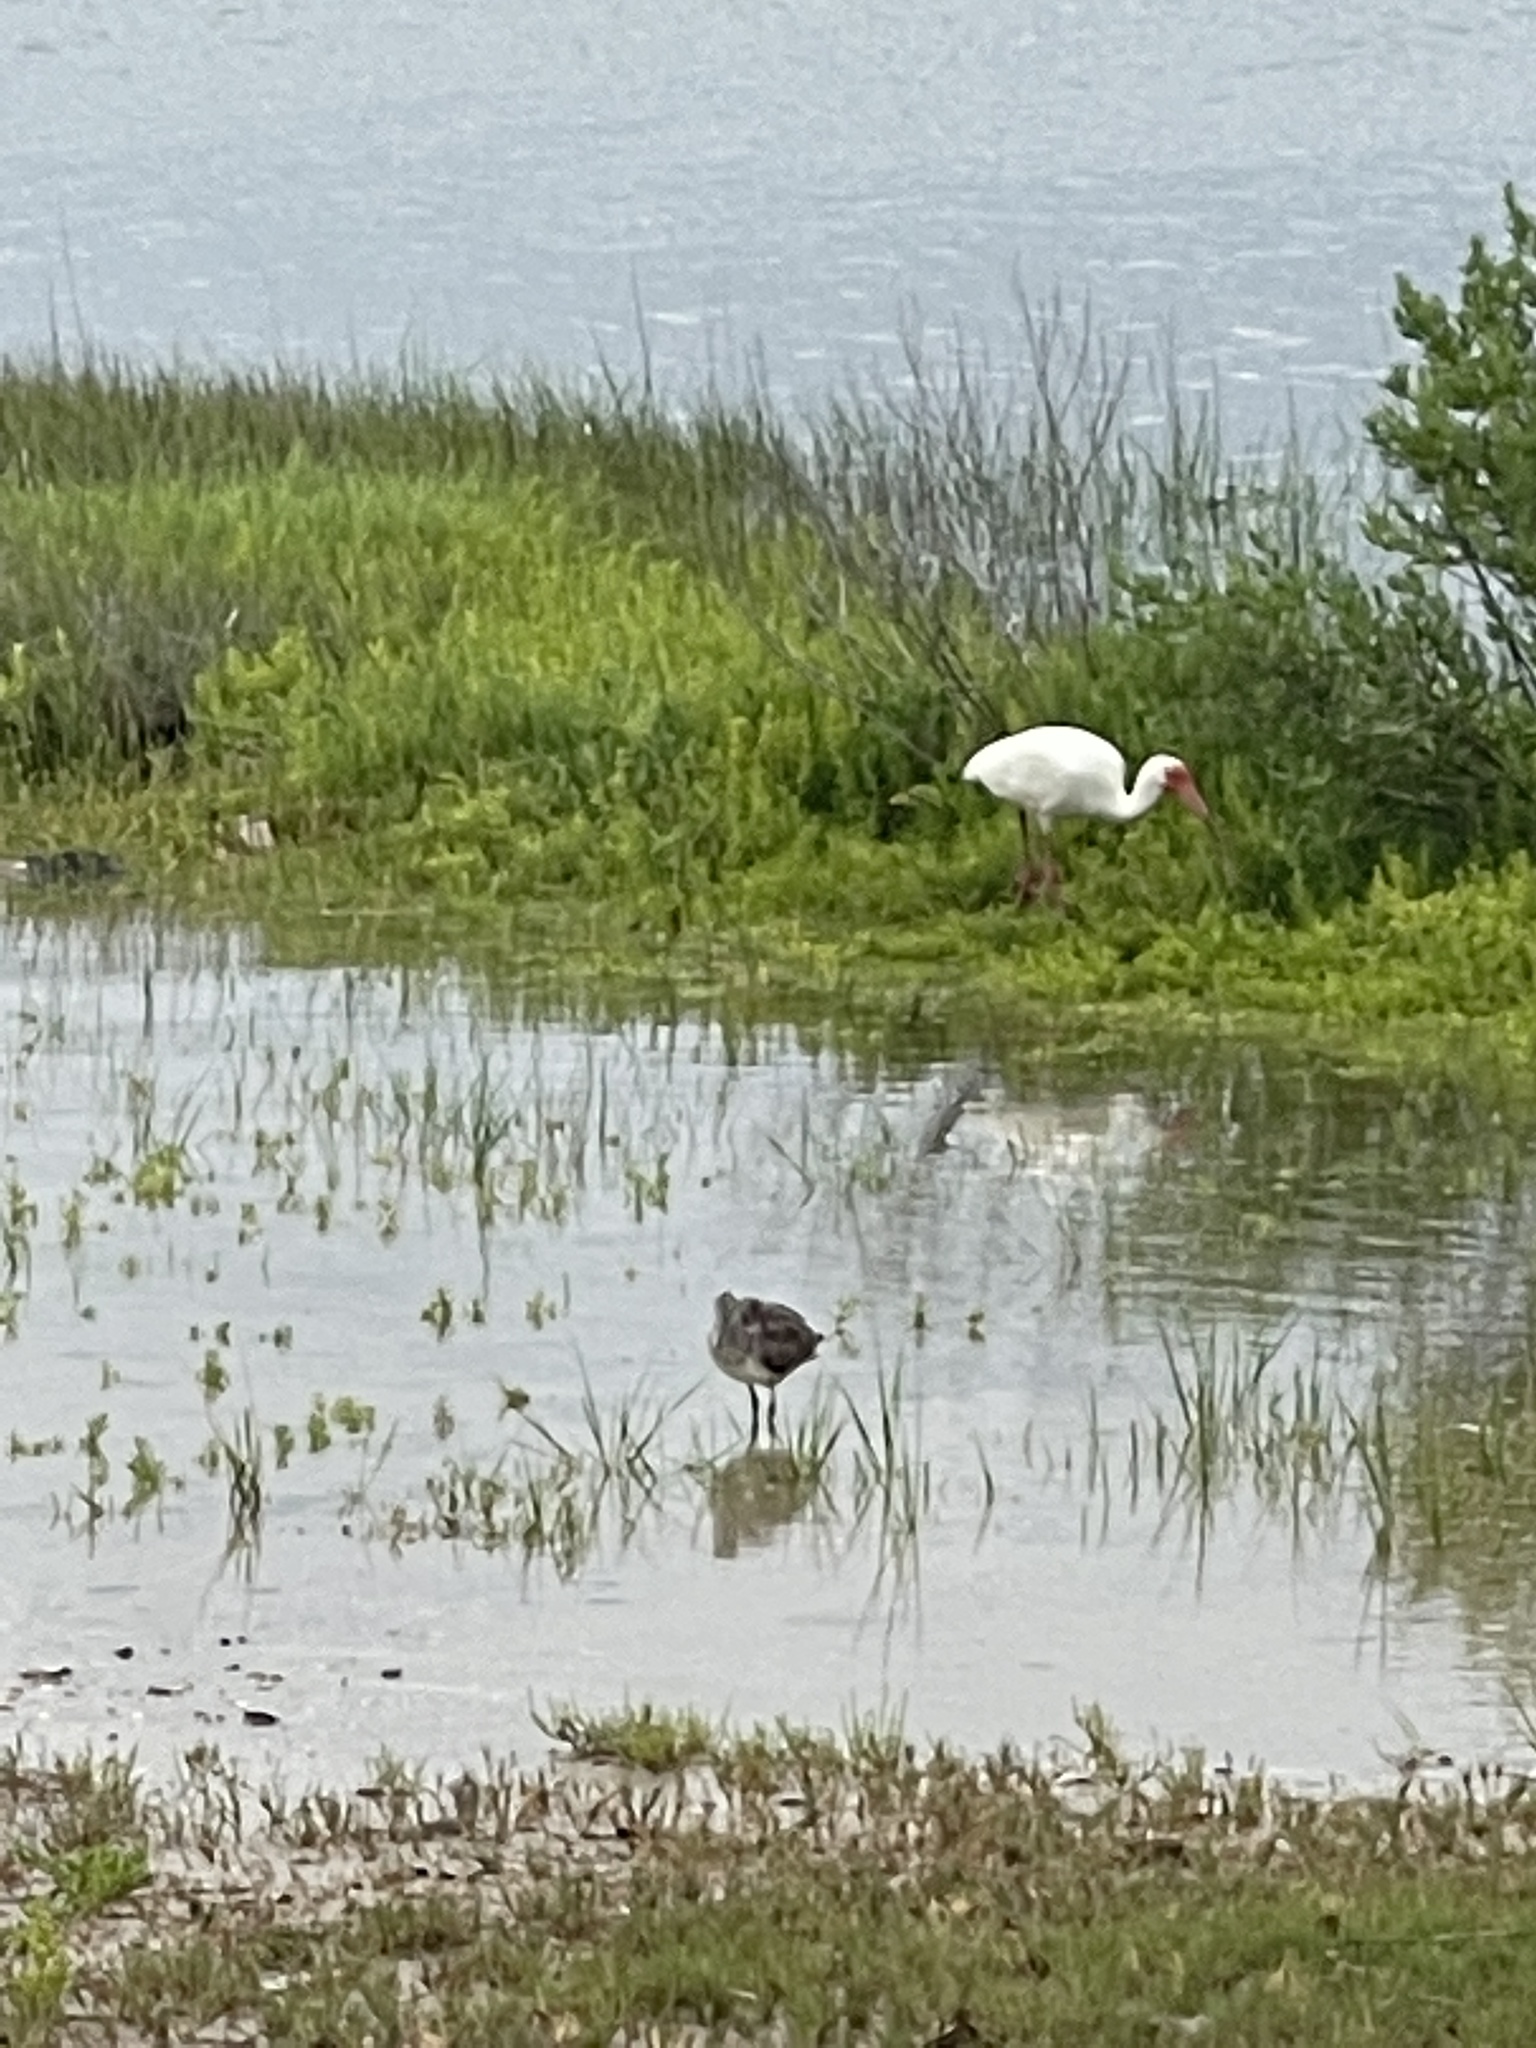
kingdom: Animalia
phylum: Chordata
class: Aves
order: Pelecaniformes
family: Threskiornithidae
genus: Eudocimus
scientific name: Eudocimus albus
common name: White ibis
